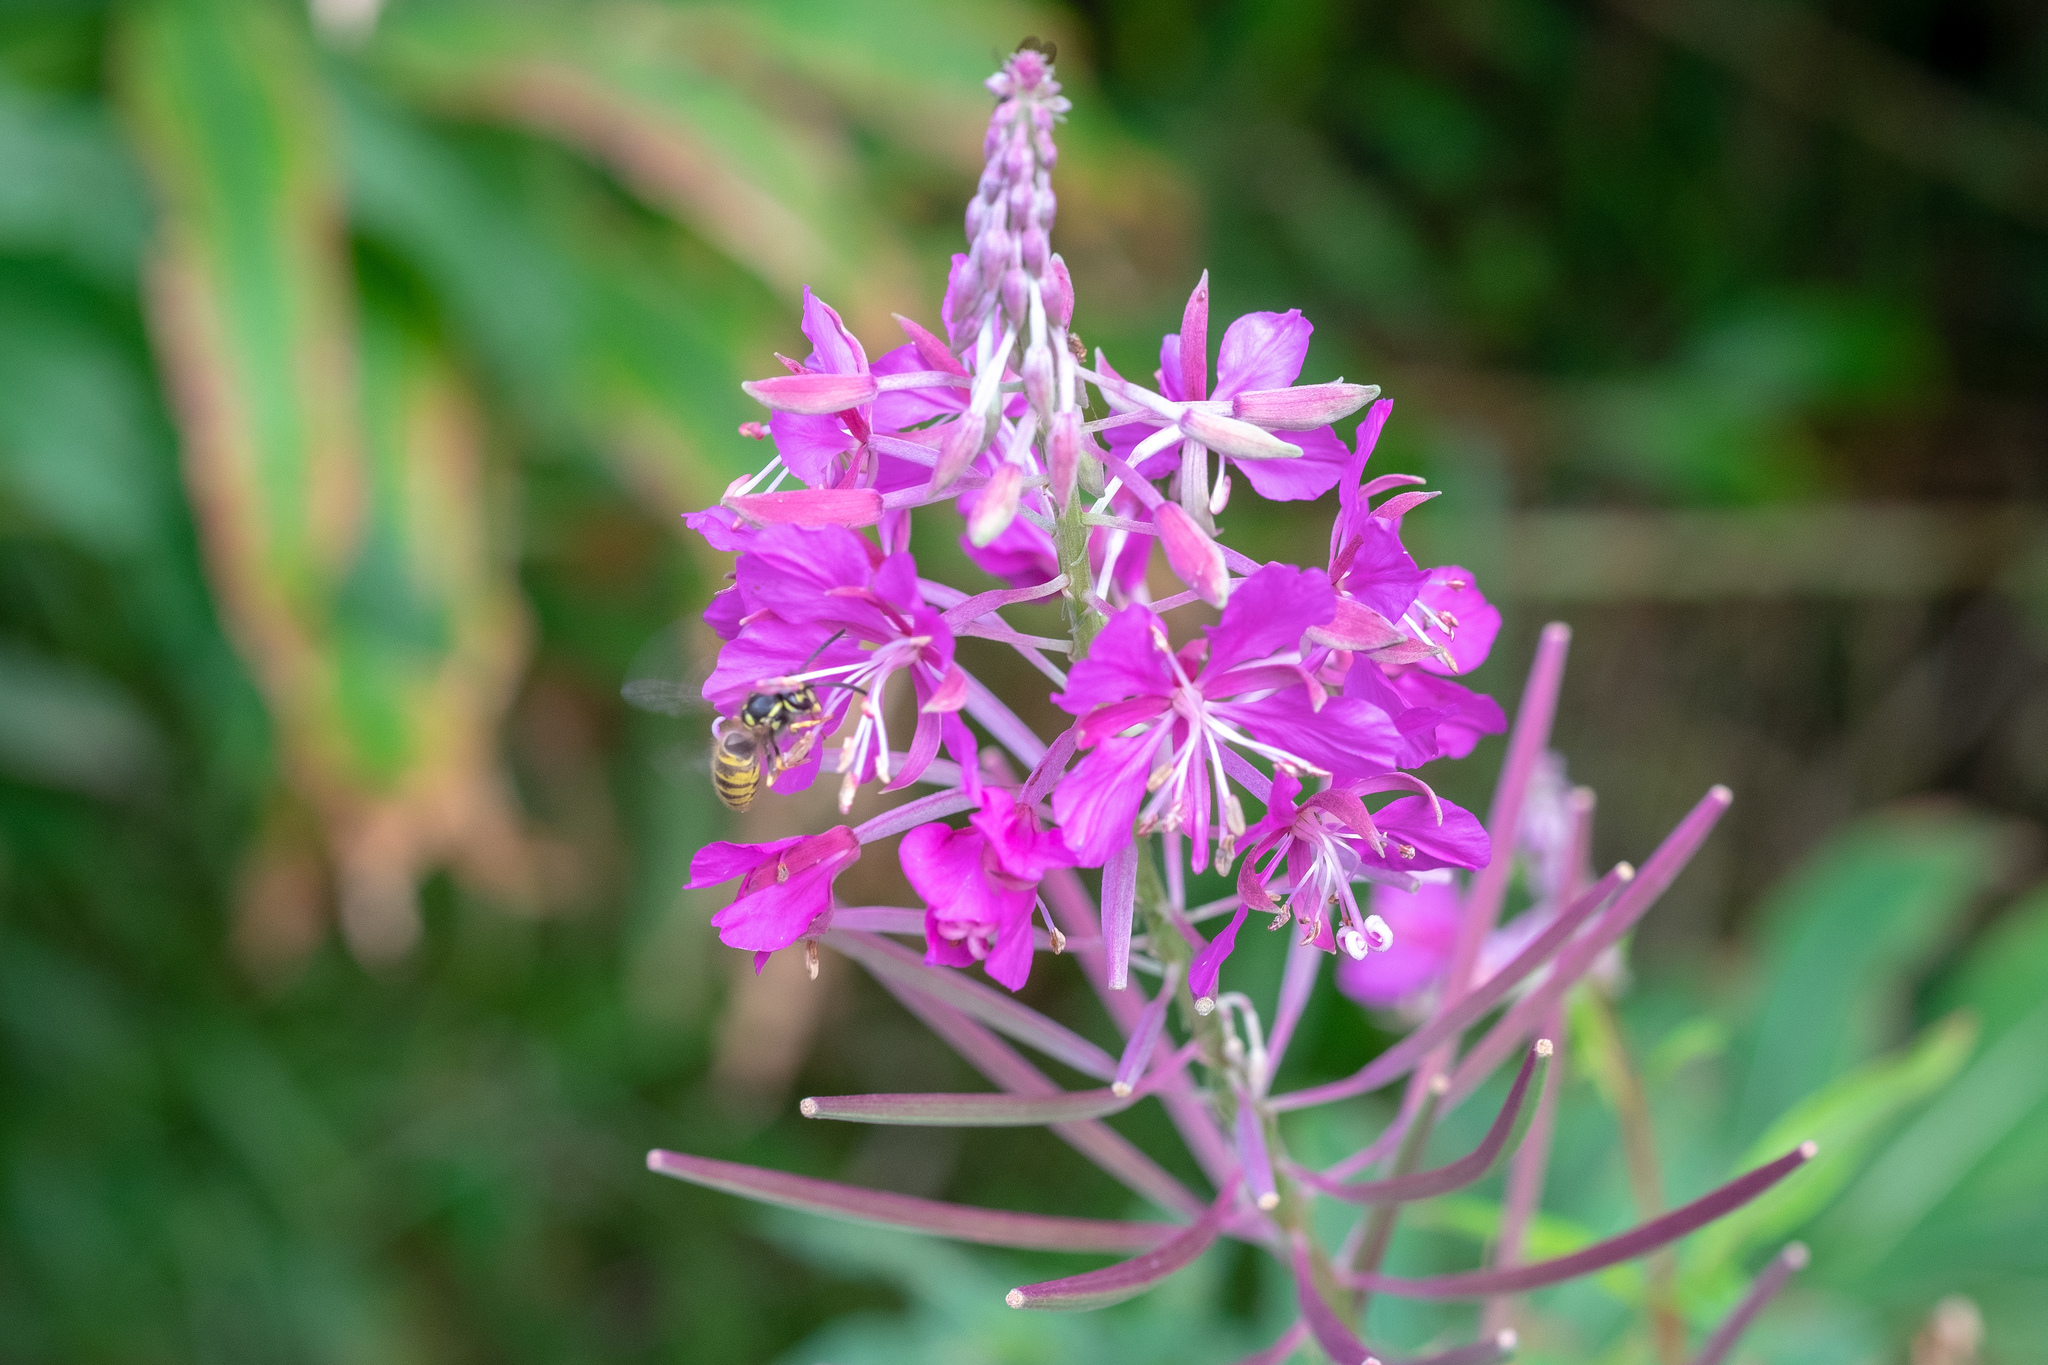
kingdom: Animalia
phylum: Arthropoda
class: Insecta
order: Hymenoptera
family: Vespidae
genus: Vespula
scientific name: Vespula vulgaris
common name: Common wasp
